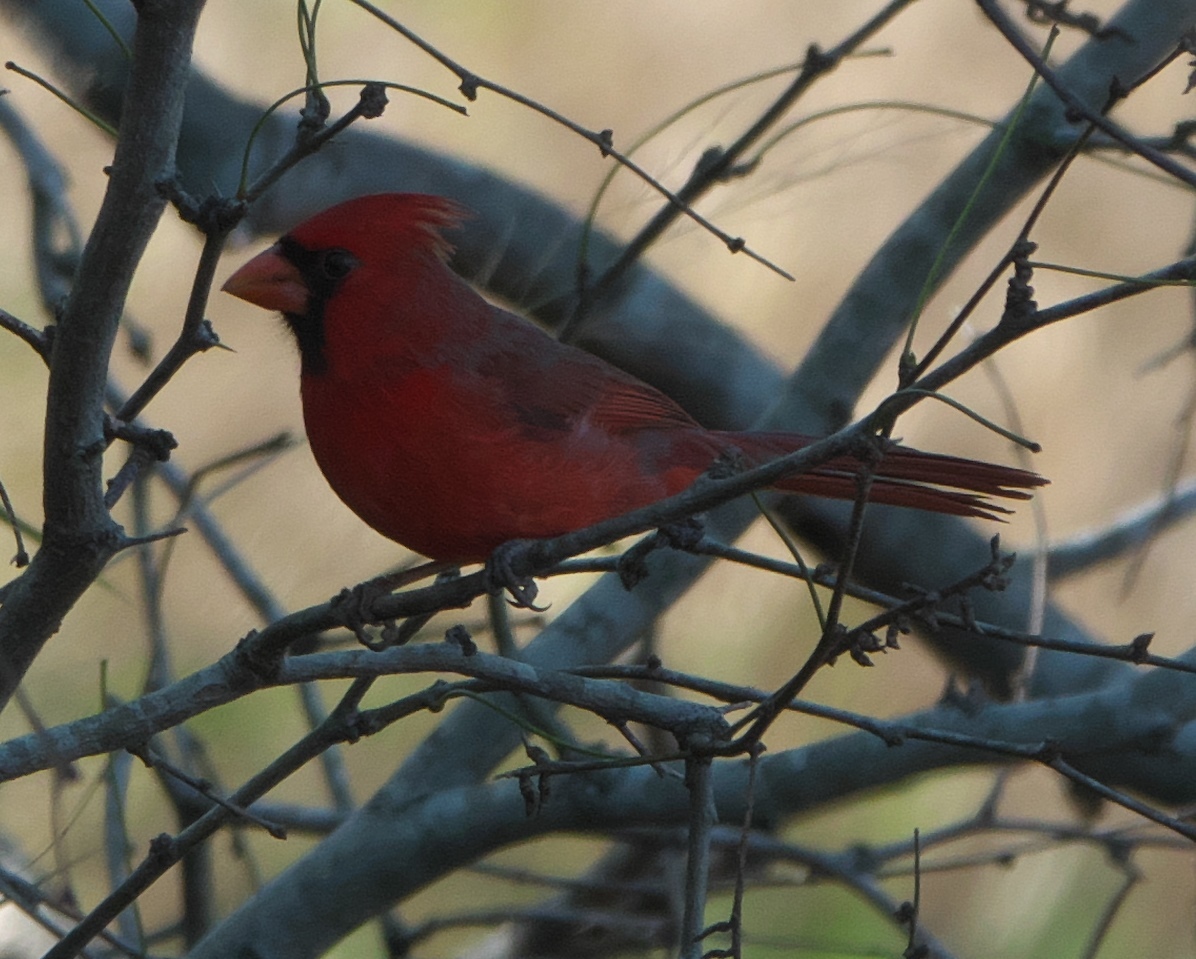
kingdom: Animalia
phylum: Chordata
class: Aves
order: Passeriformes
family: Cardinalidae
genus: Cardinalis
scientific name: Cardinalis cardinalis
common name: Northern cardinal
